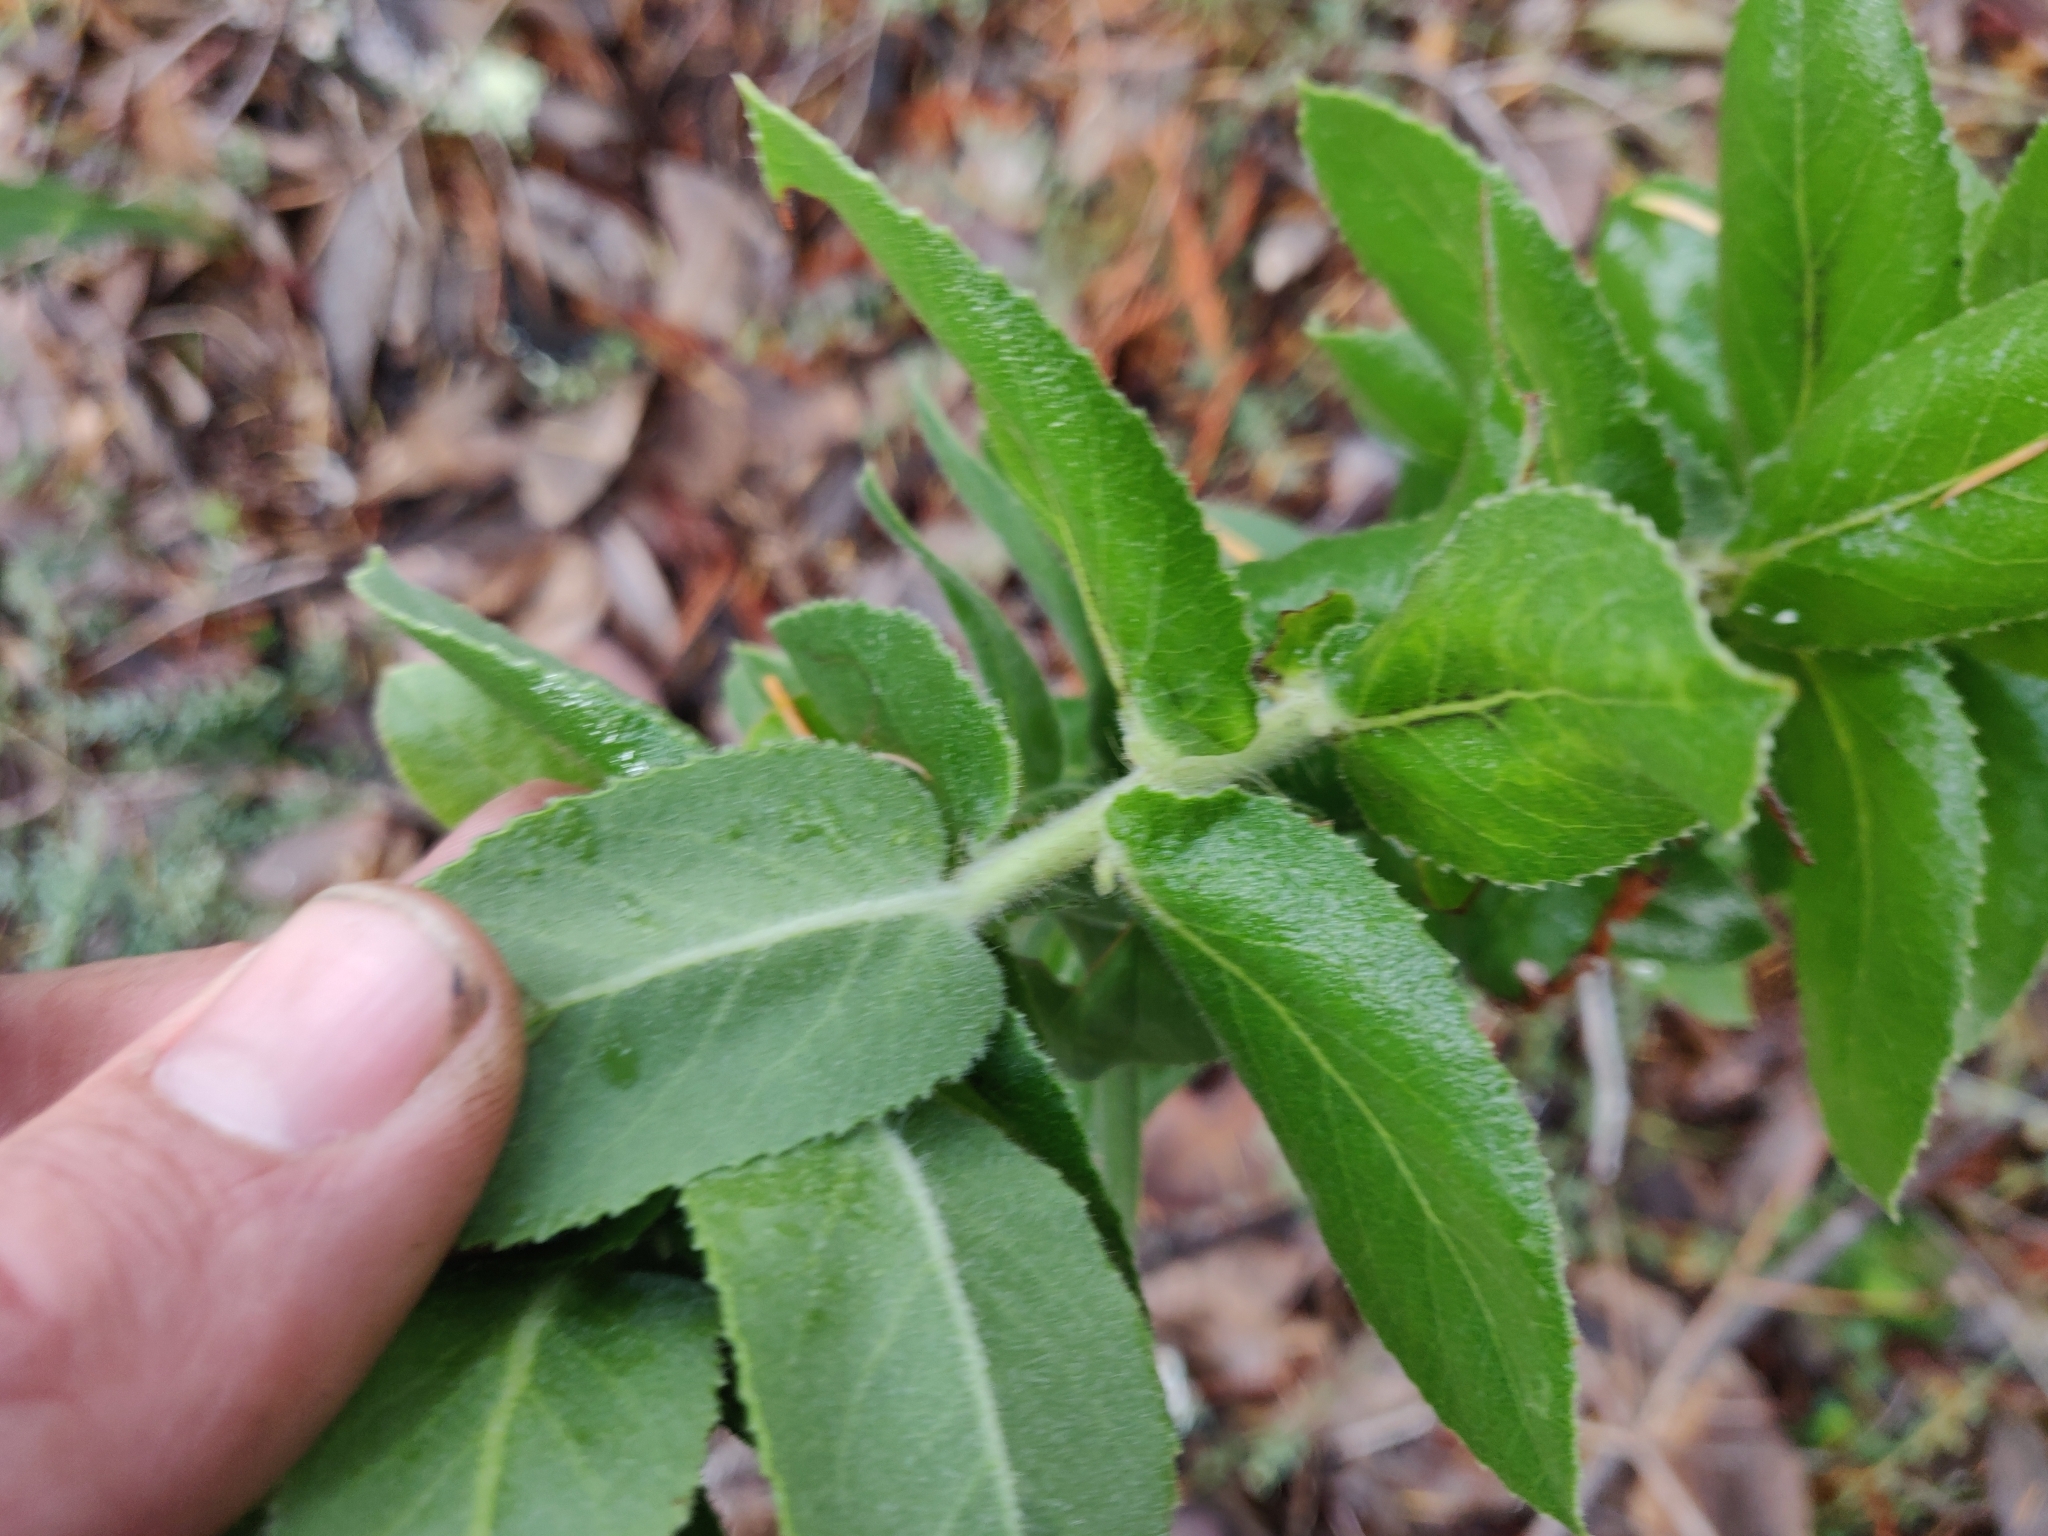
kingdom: Plantae
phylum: Tracheophyta
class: Magnoliopsida
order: Ericales
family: Ericaceae
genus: Arctostaphylos
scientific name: Arctostaphylos andersonii
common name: Santa cruz manzanita
